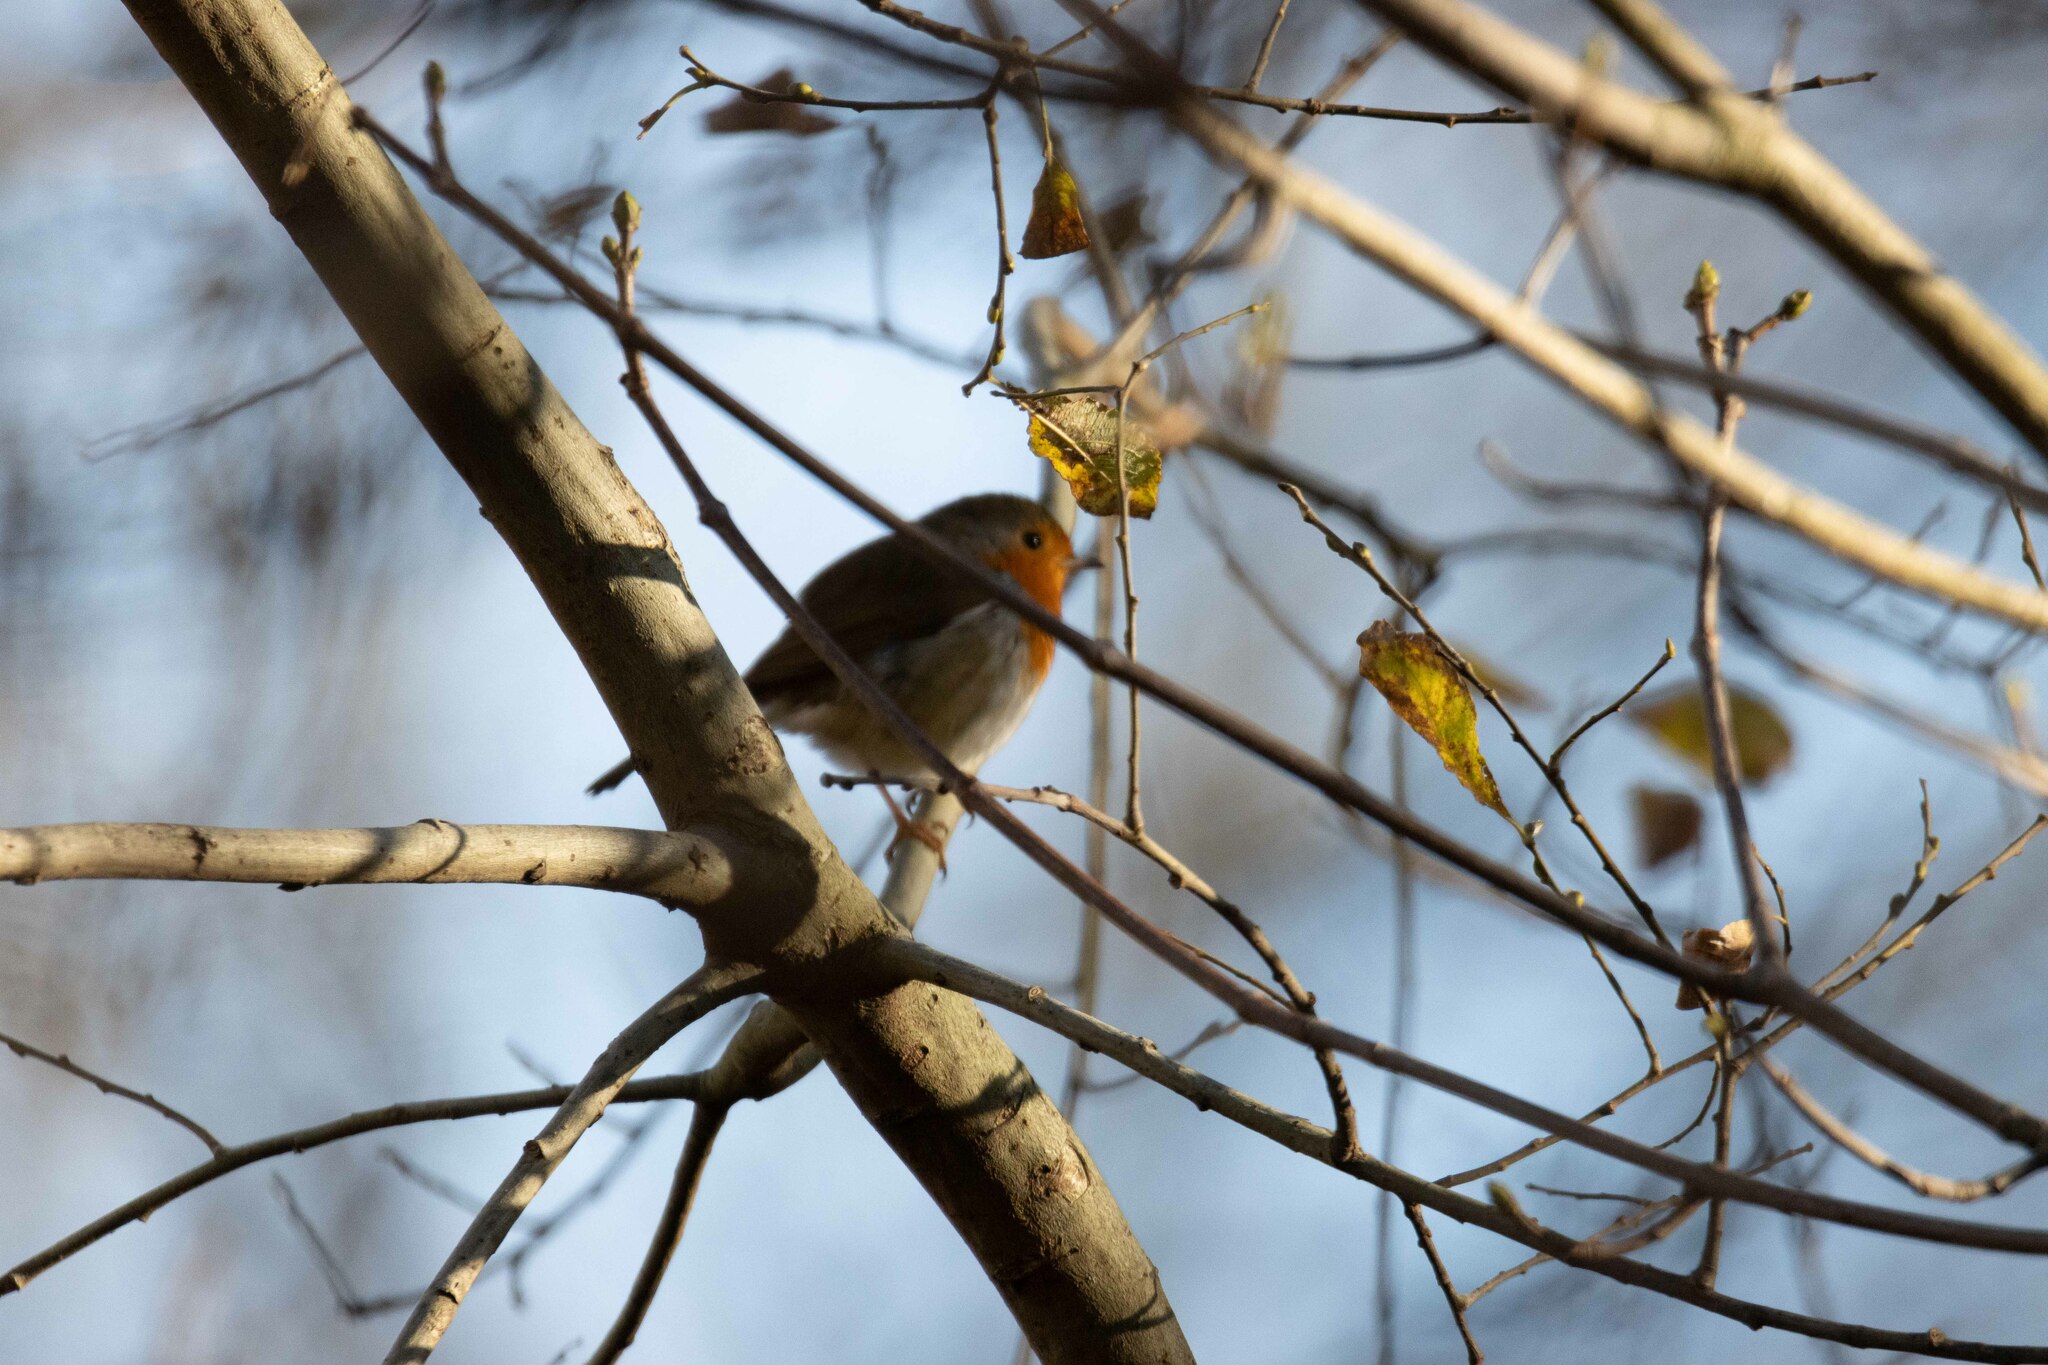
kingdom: Animalia
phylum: Chordata
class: Aves
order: Passeriformes
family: Muscicapidae
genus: Erithacus
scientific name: Erithacus rubecula
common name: European robin
